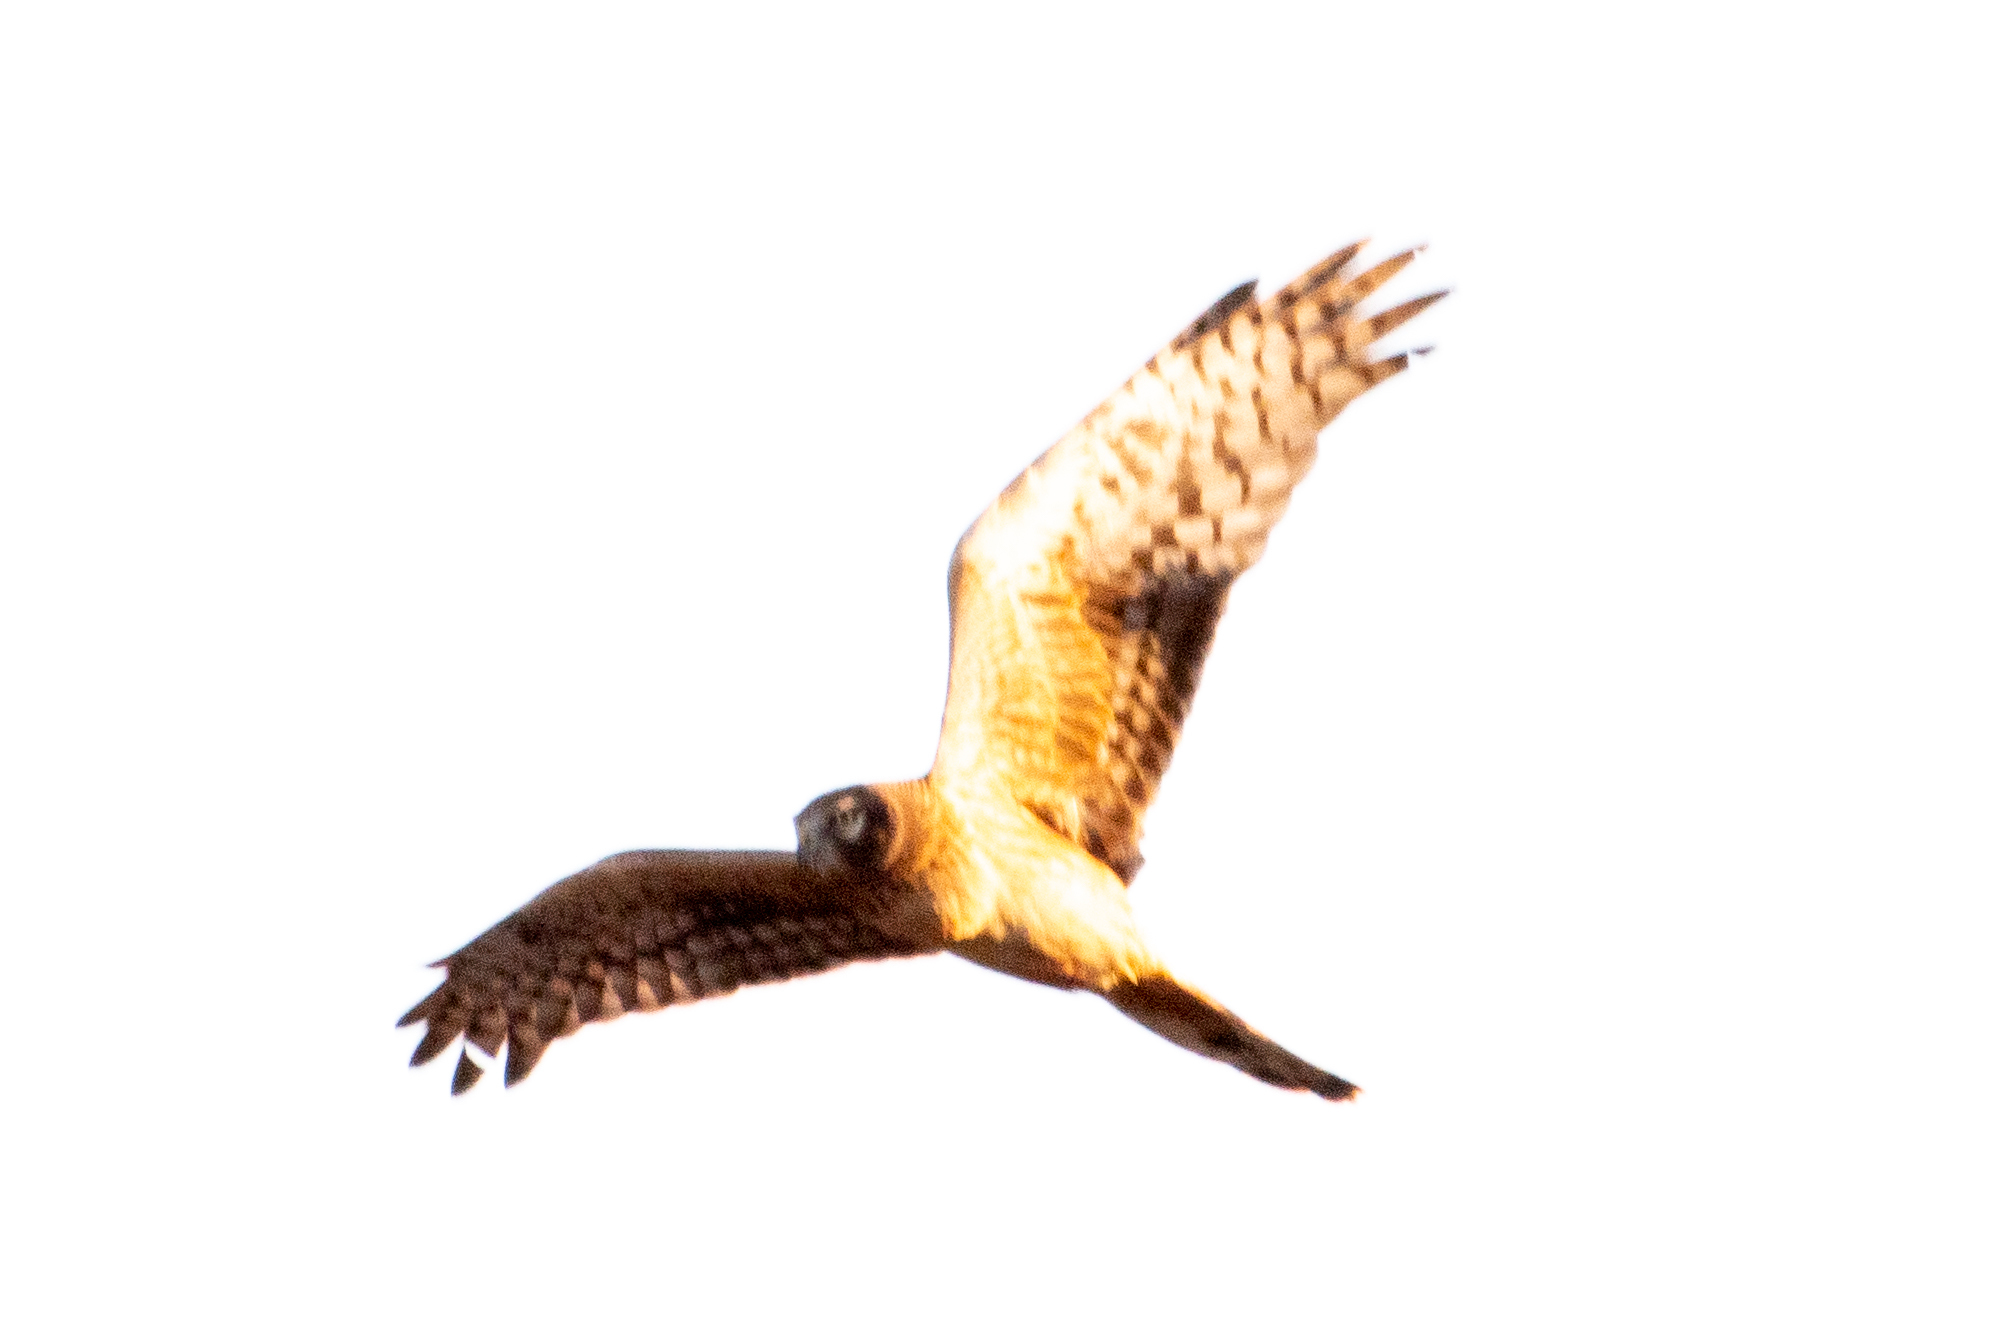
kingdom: Animalia
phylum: Chordata
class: Aves
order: Accipitriformes
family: Accipitridae
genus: Circus
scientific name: Circus cyaneus
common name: Hen harrier
